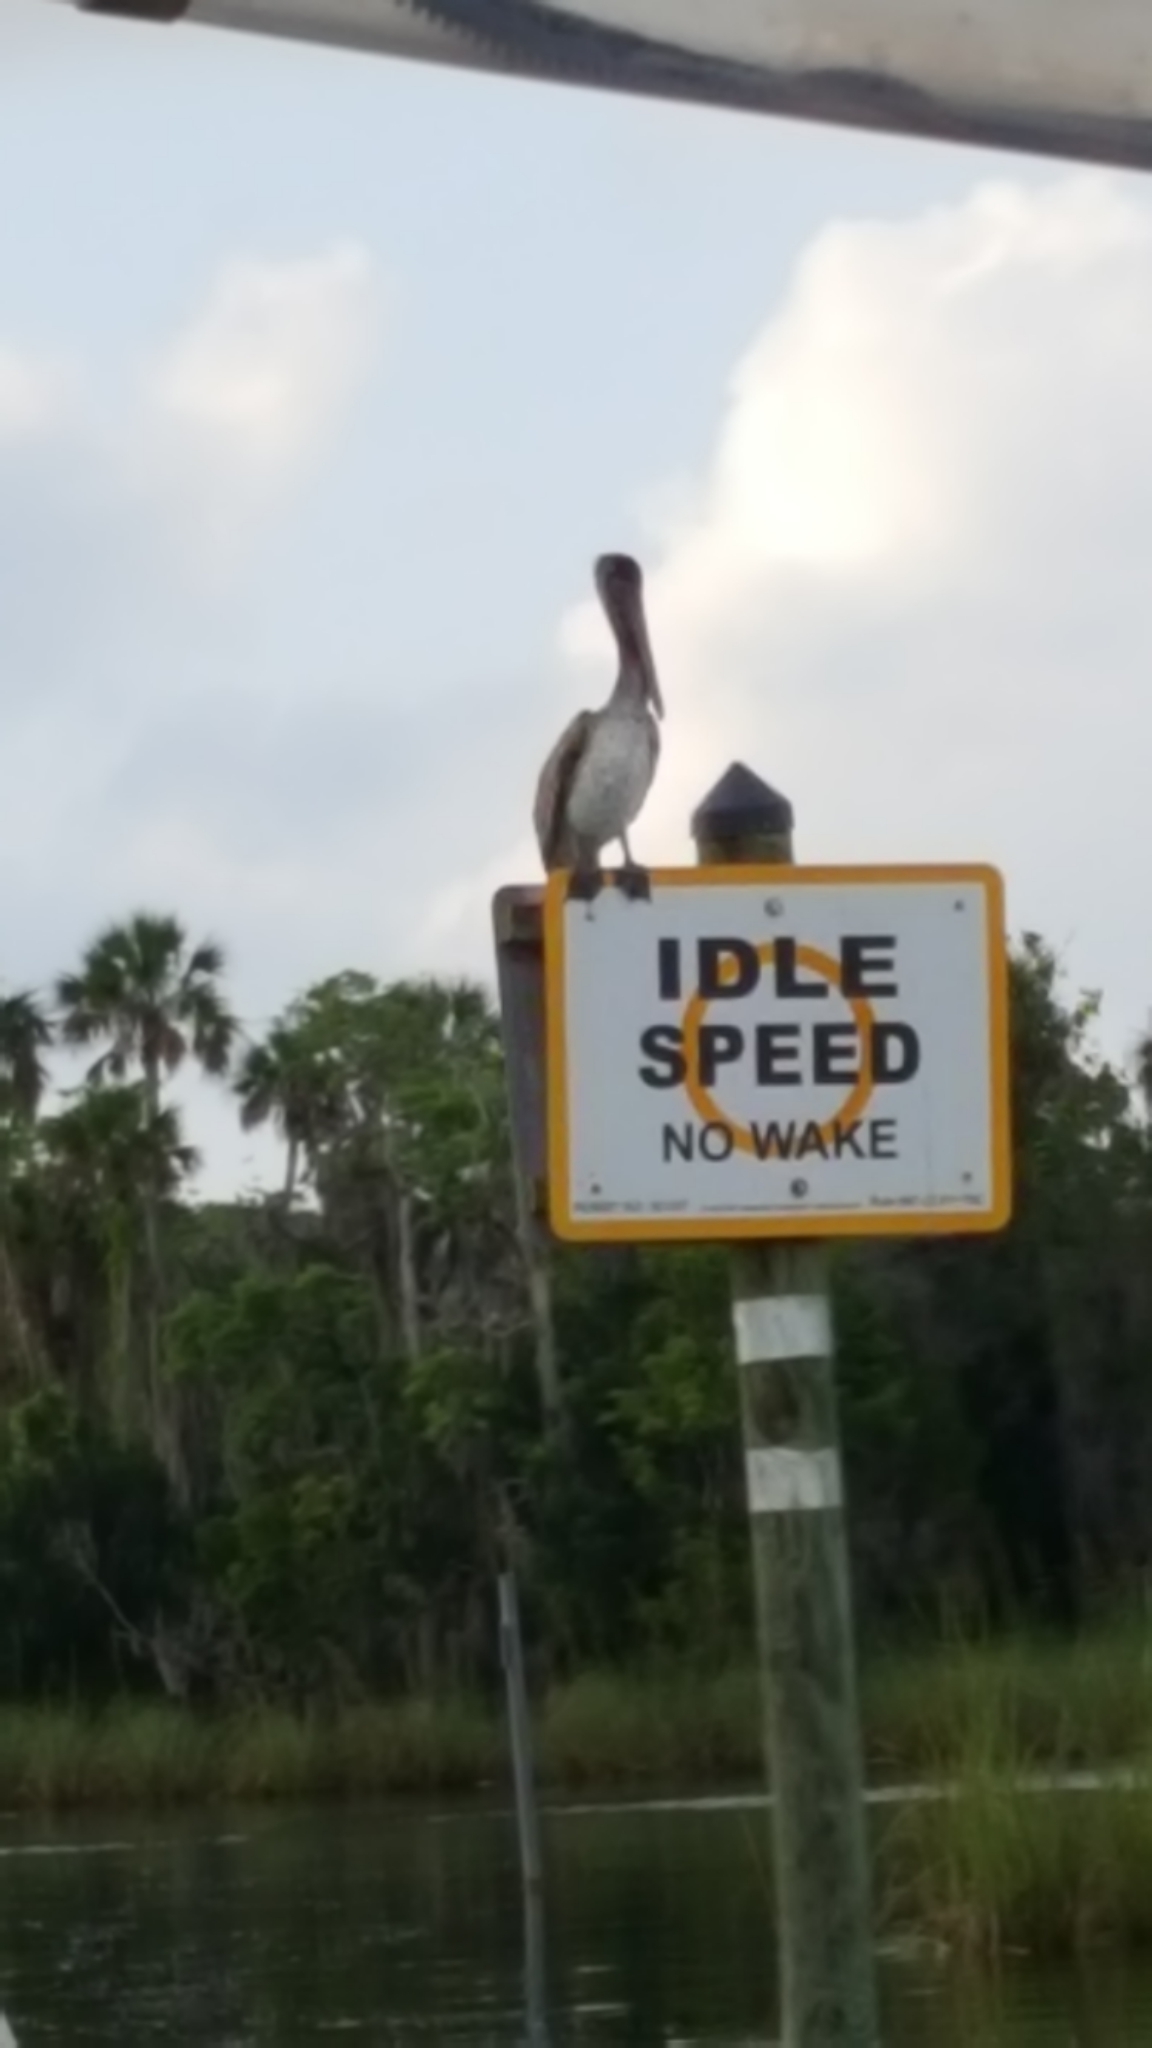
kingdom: Animalia
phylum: Chordata
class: Aves
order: Pelecaniformes
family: Pelecanidae
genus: Pelecanus
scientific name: Pelecanus occidentalis
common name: Brown pelican
